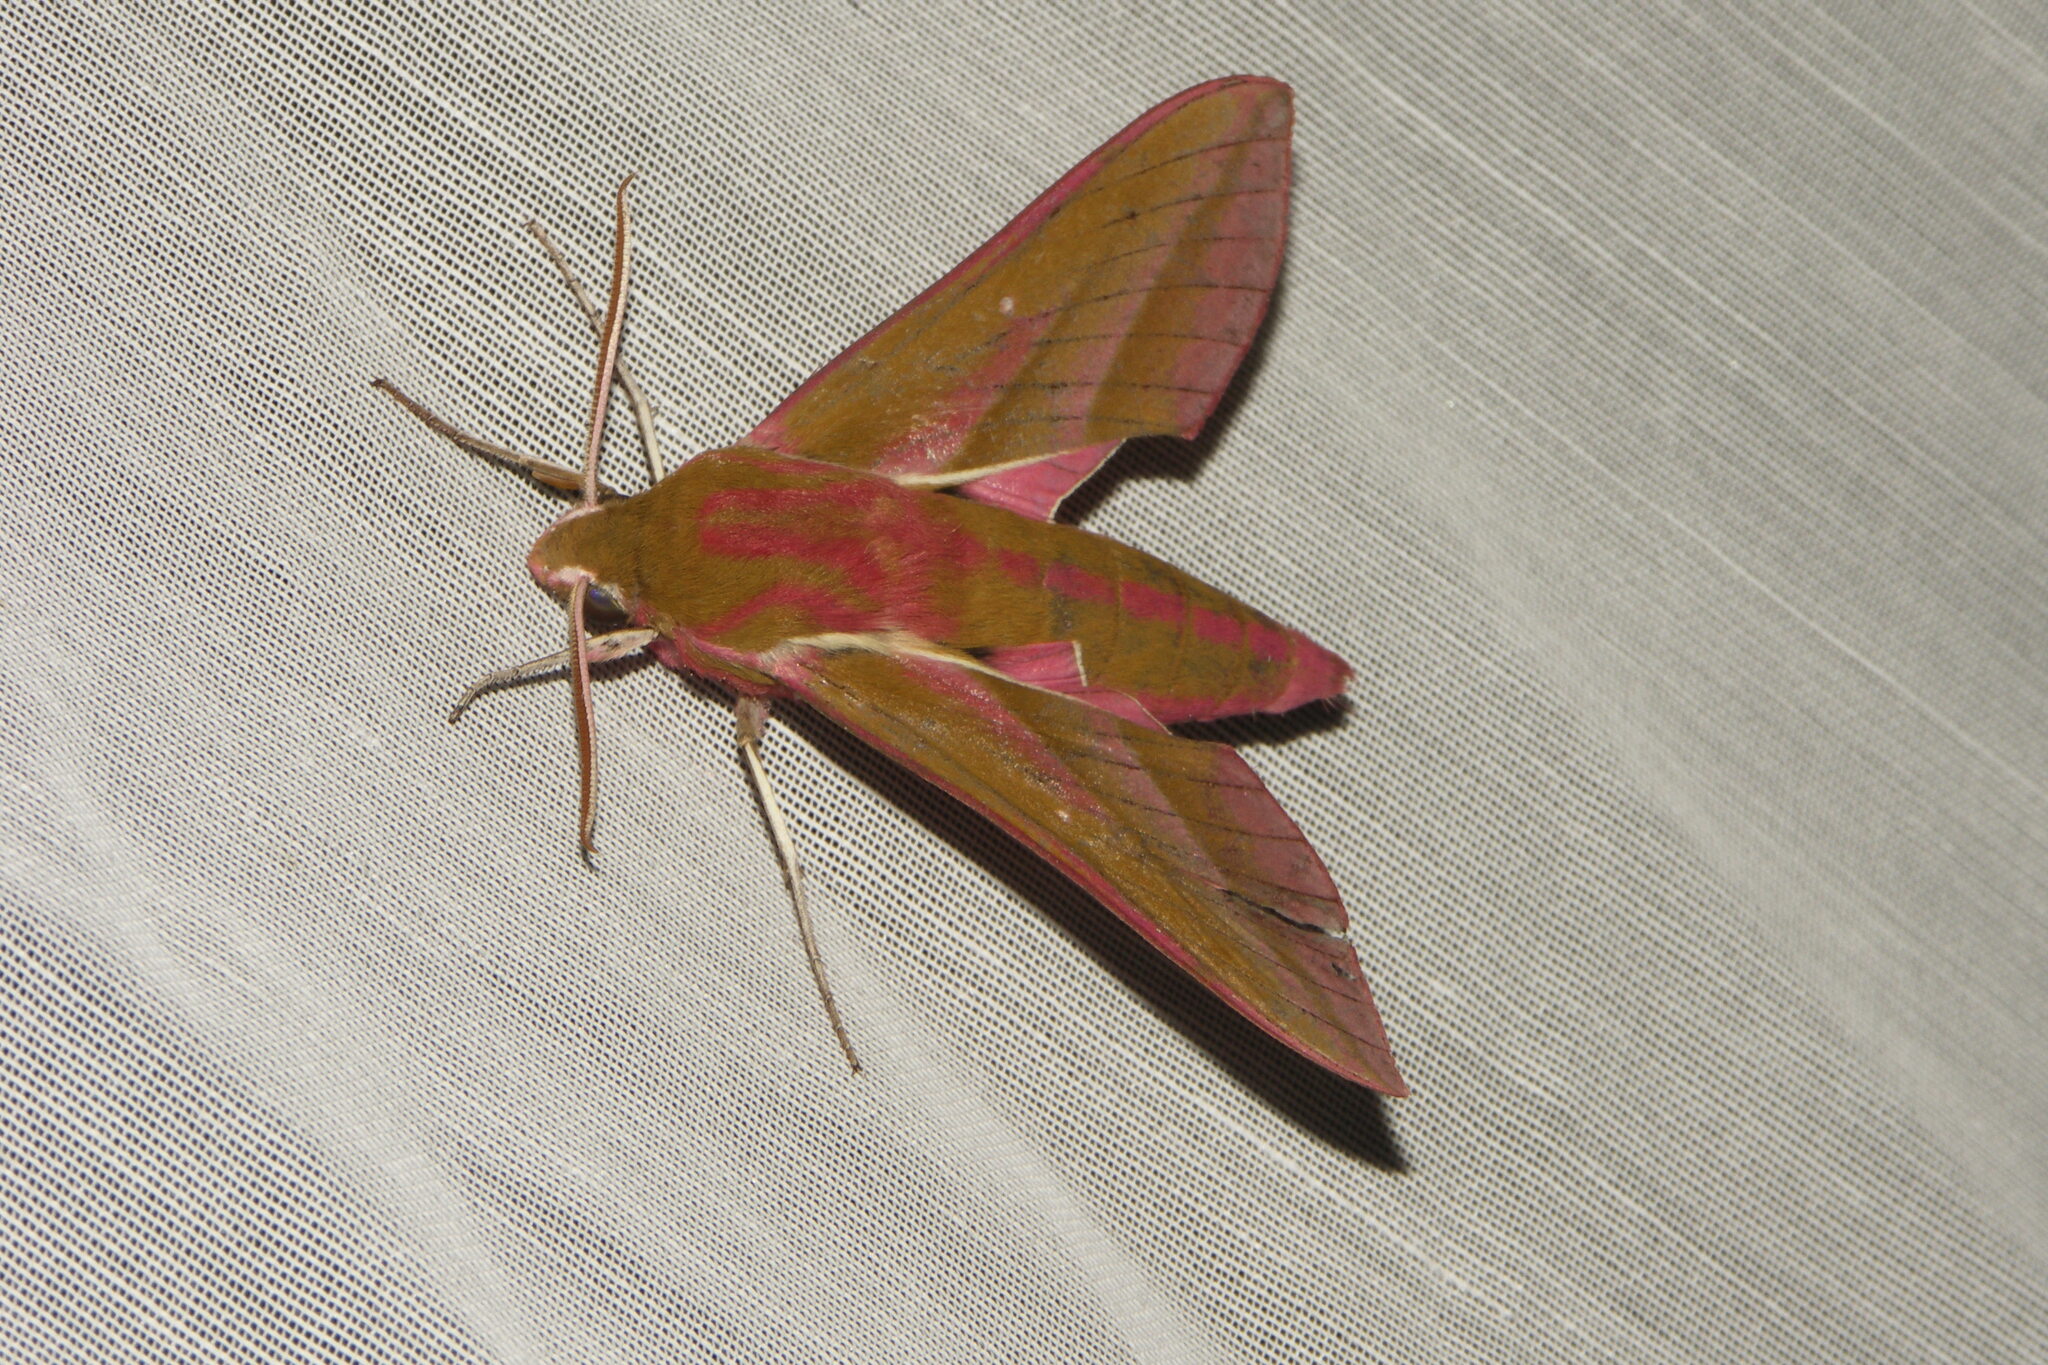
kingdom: Animalia
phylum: Arthropoda
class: Insecta
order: Lepidoptera
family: Sphingidae
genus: Deilephila
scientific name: Deilephila elpenor
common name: Elephant hawk-moth
